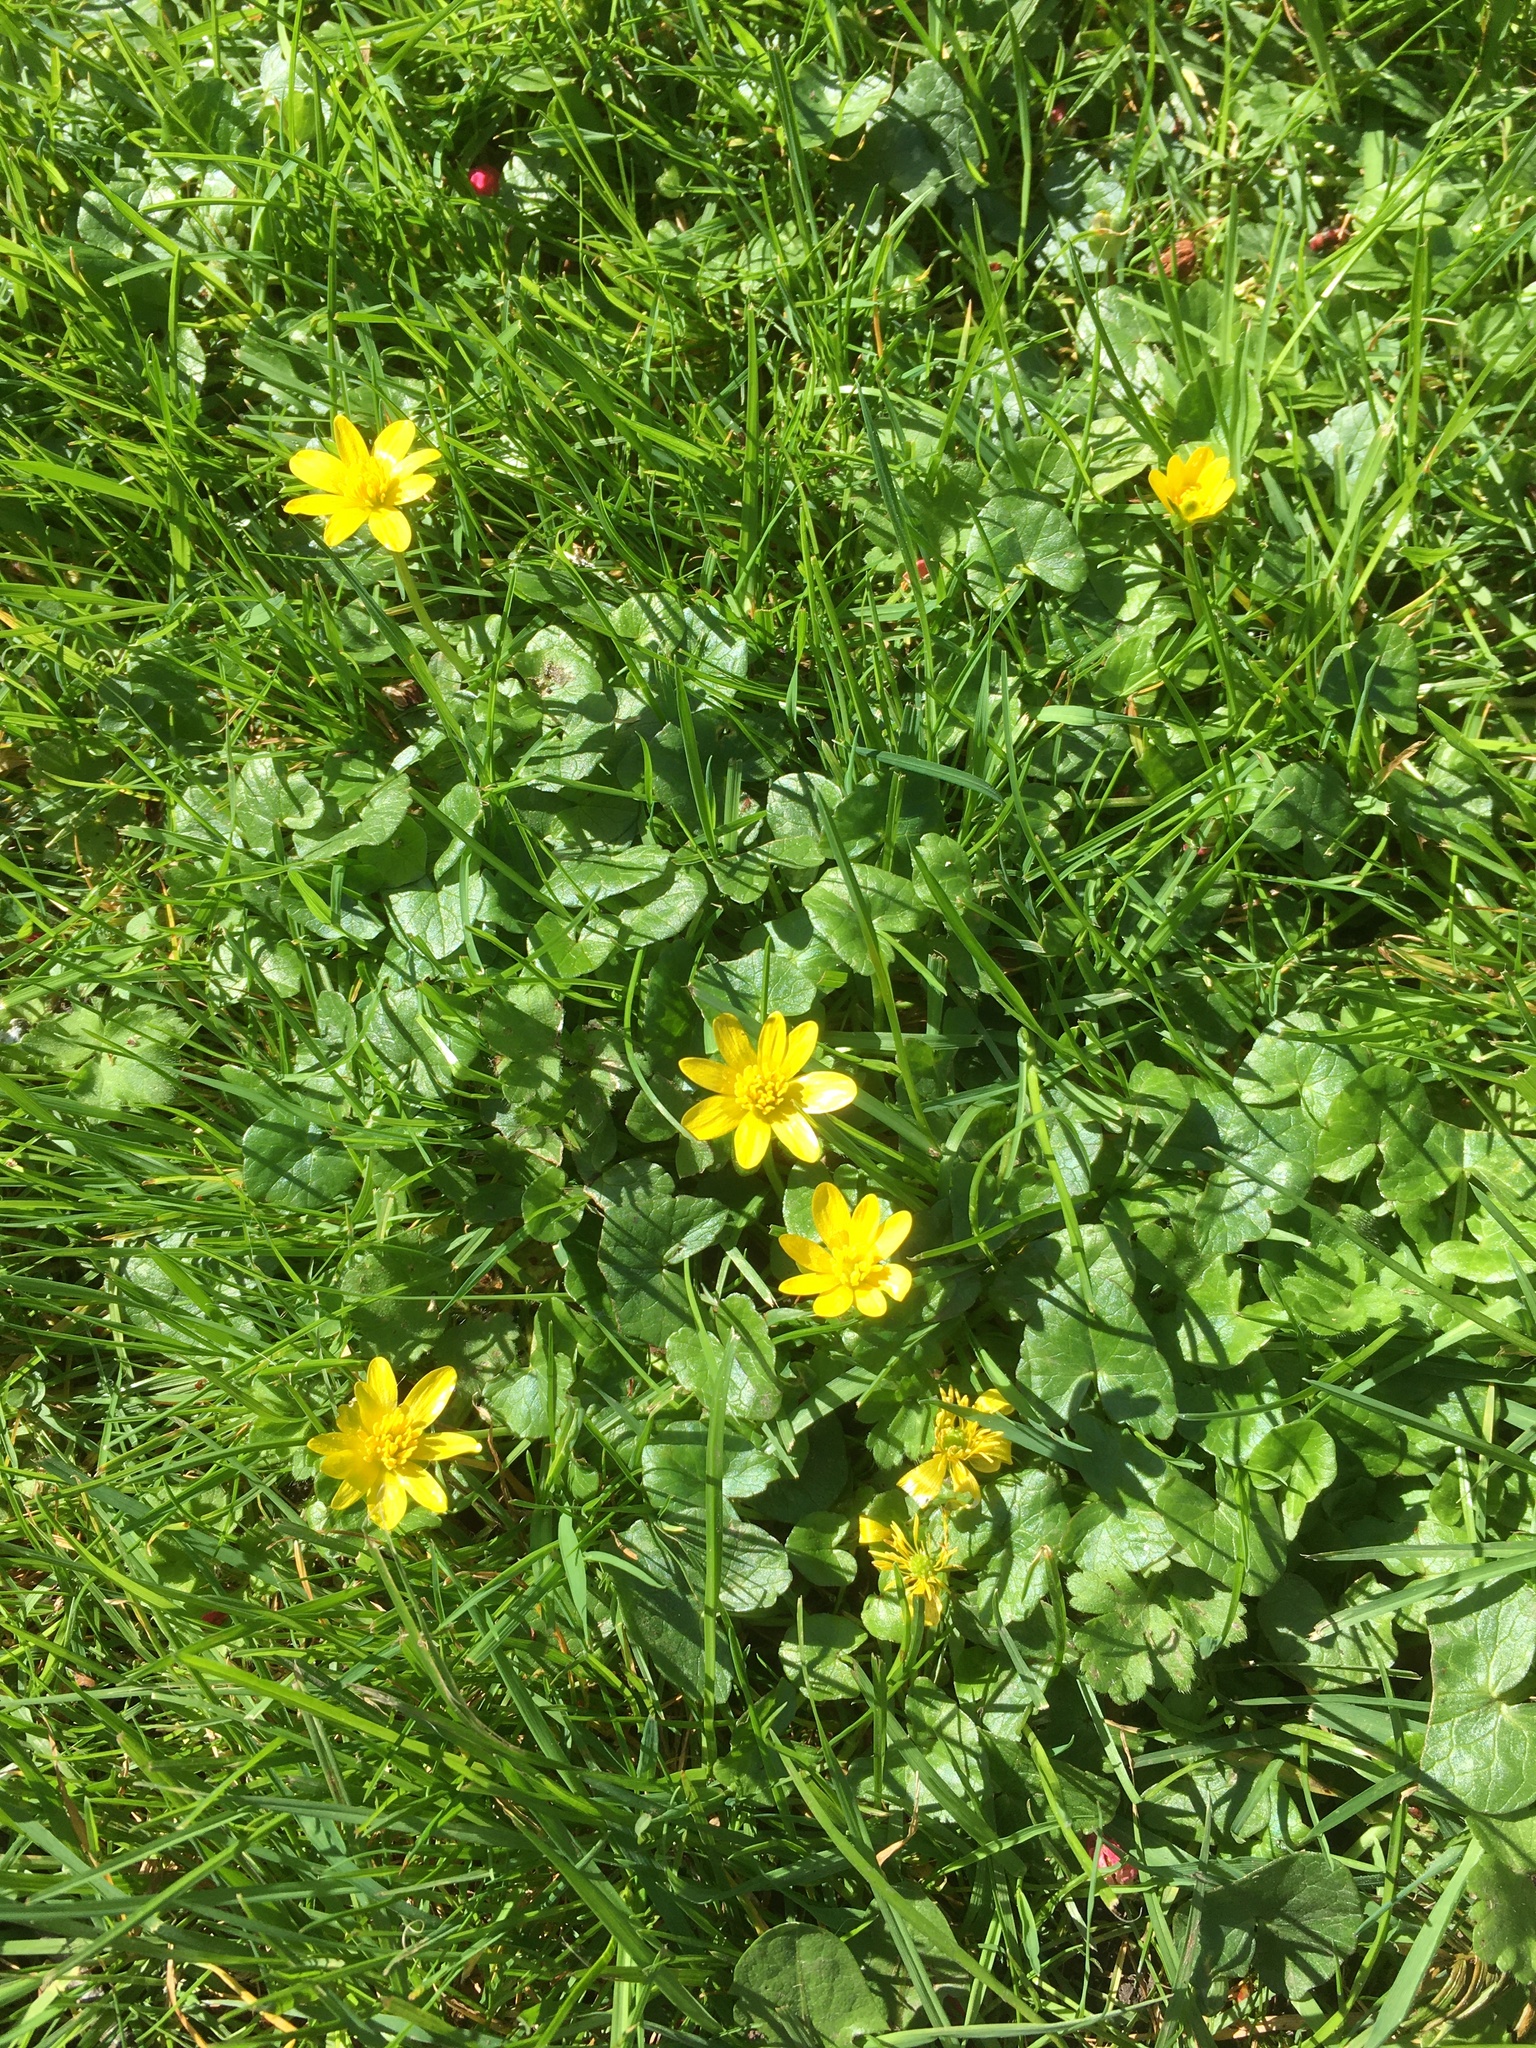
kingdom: Plantae
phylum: Tracheophyta
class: Magnoliopsida
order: Ranunculales
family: Ranunculaceae
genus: Ficaria
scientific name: Ficaria verna
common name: Lesser celandine
